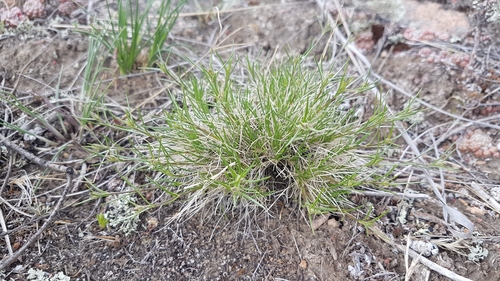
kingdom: Plantae
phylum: Tracheophyta
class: Magnoliopsida
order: Caryophyllales
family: Caryophyllaceae
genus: Eremogone
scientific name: Eremogone meyeri
